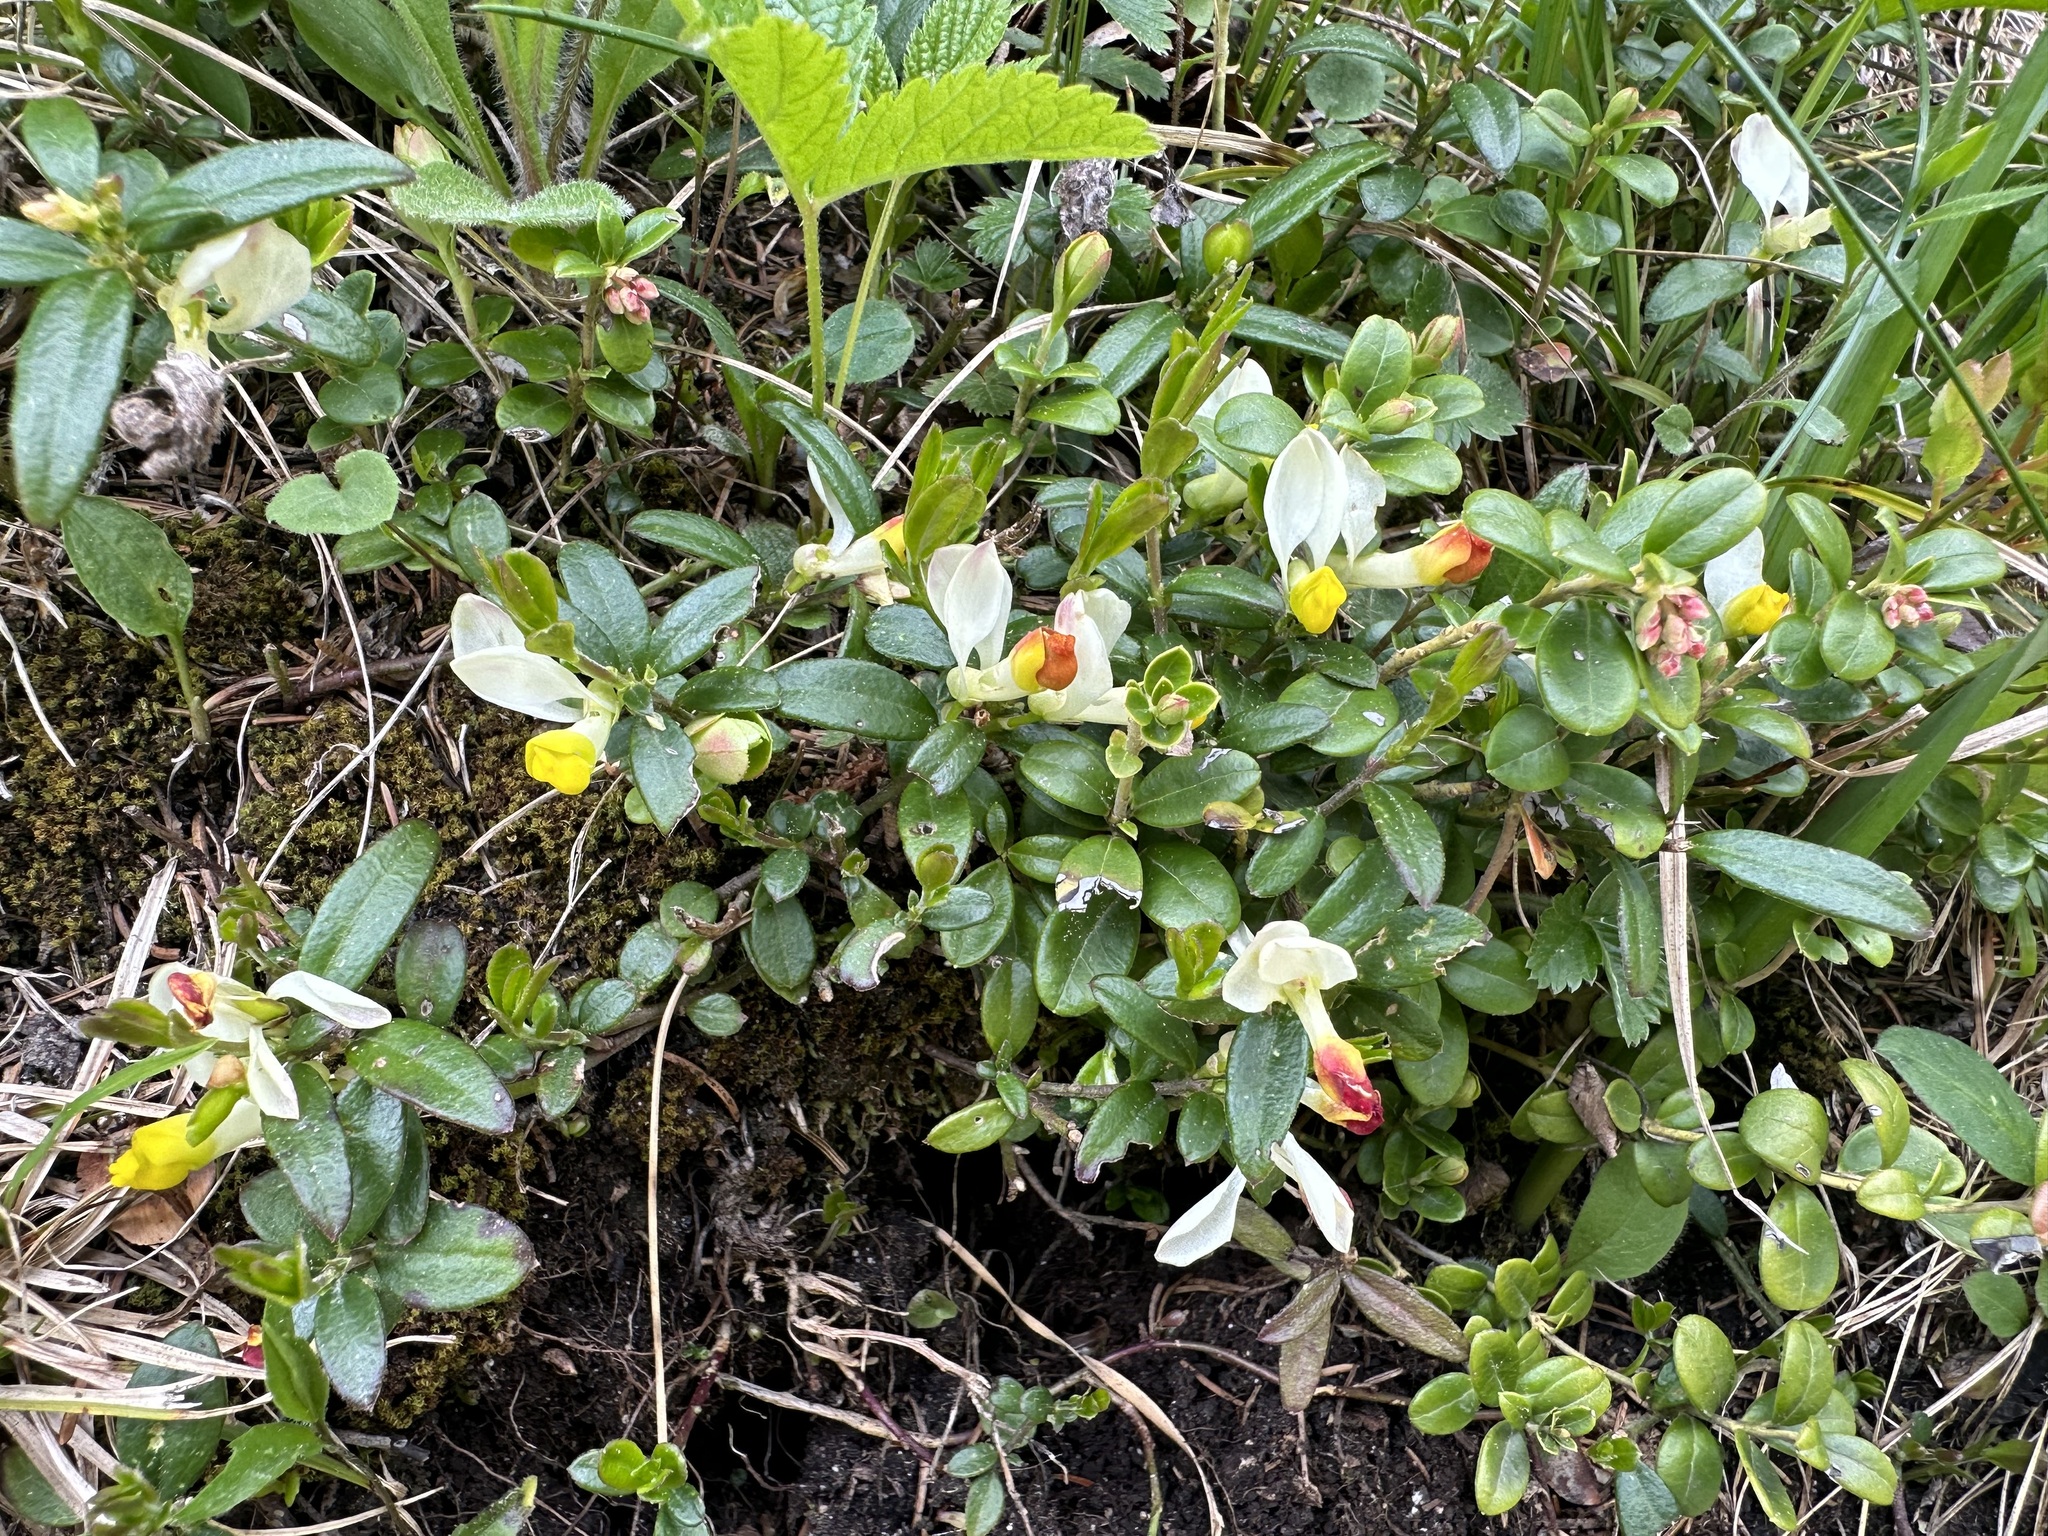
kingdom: Plantae
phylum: Tracheophyta
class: Magnoliopsida
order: Fabales
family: Polygalaceae
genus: Polygaloides
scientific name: Polygaloides chamaebuxus
